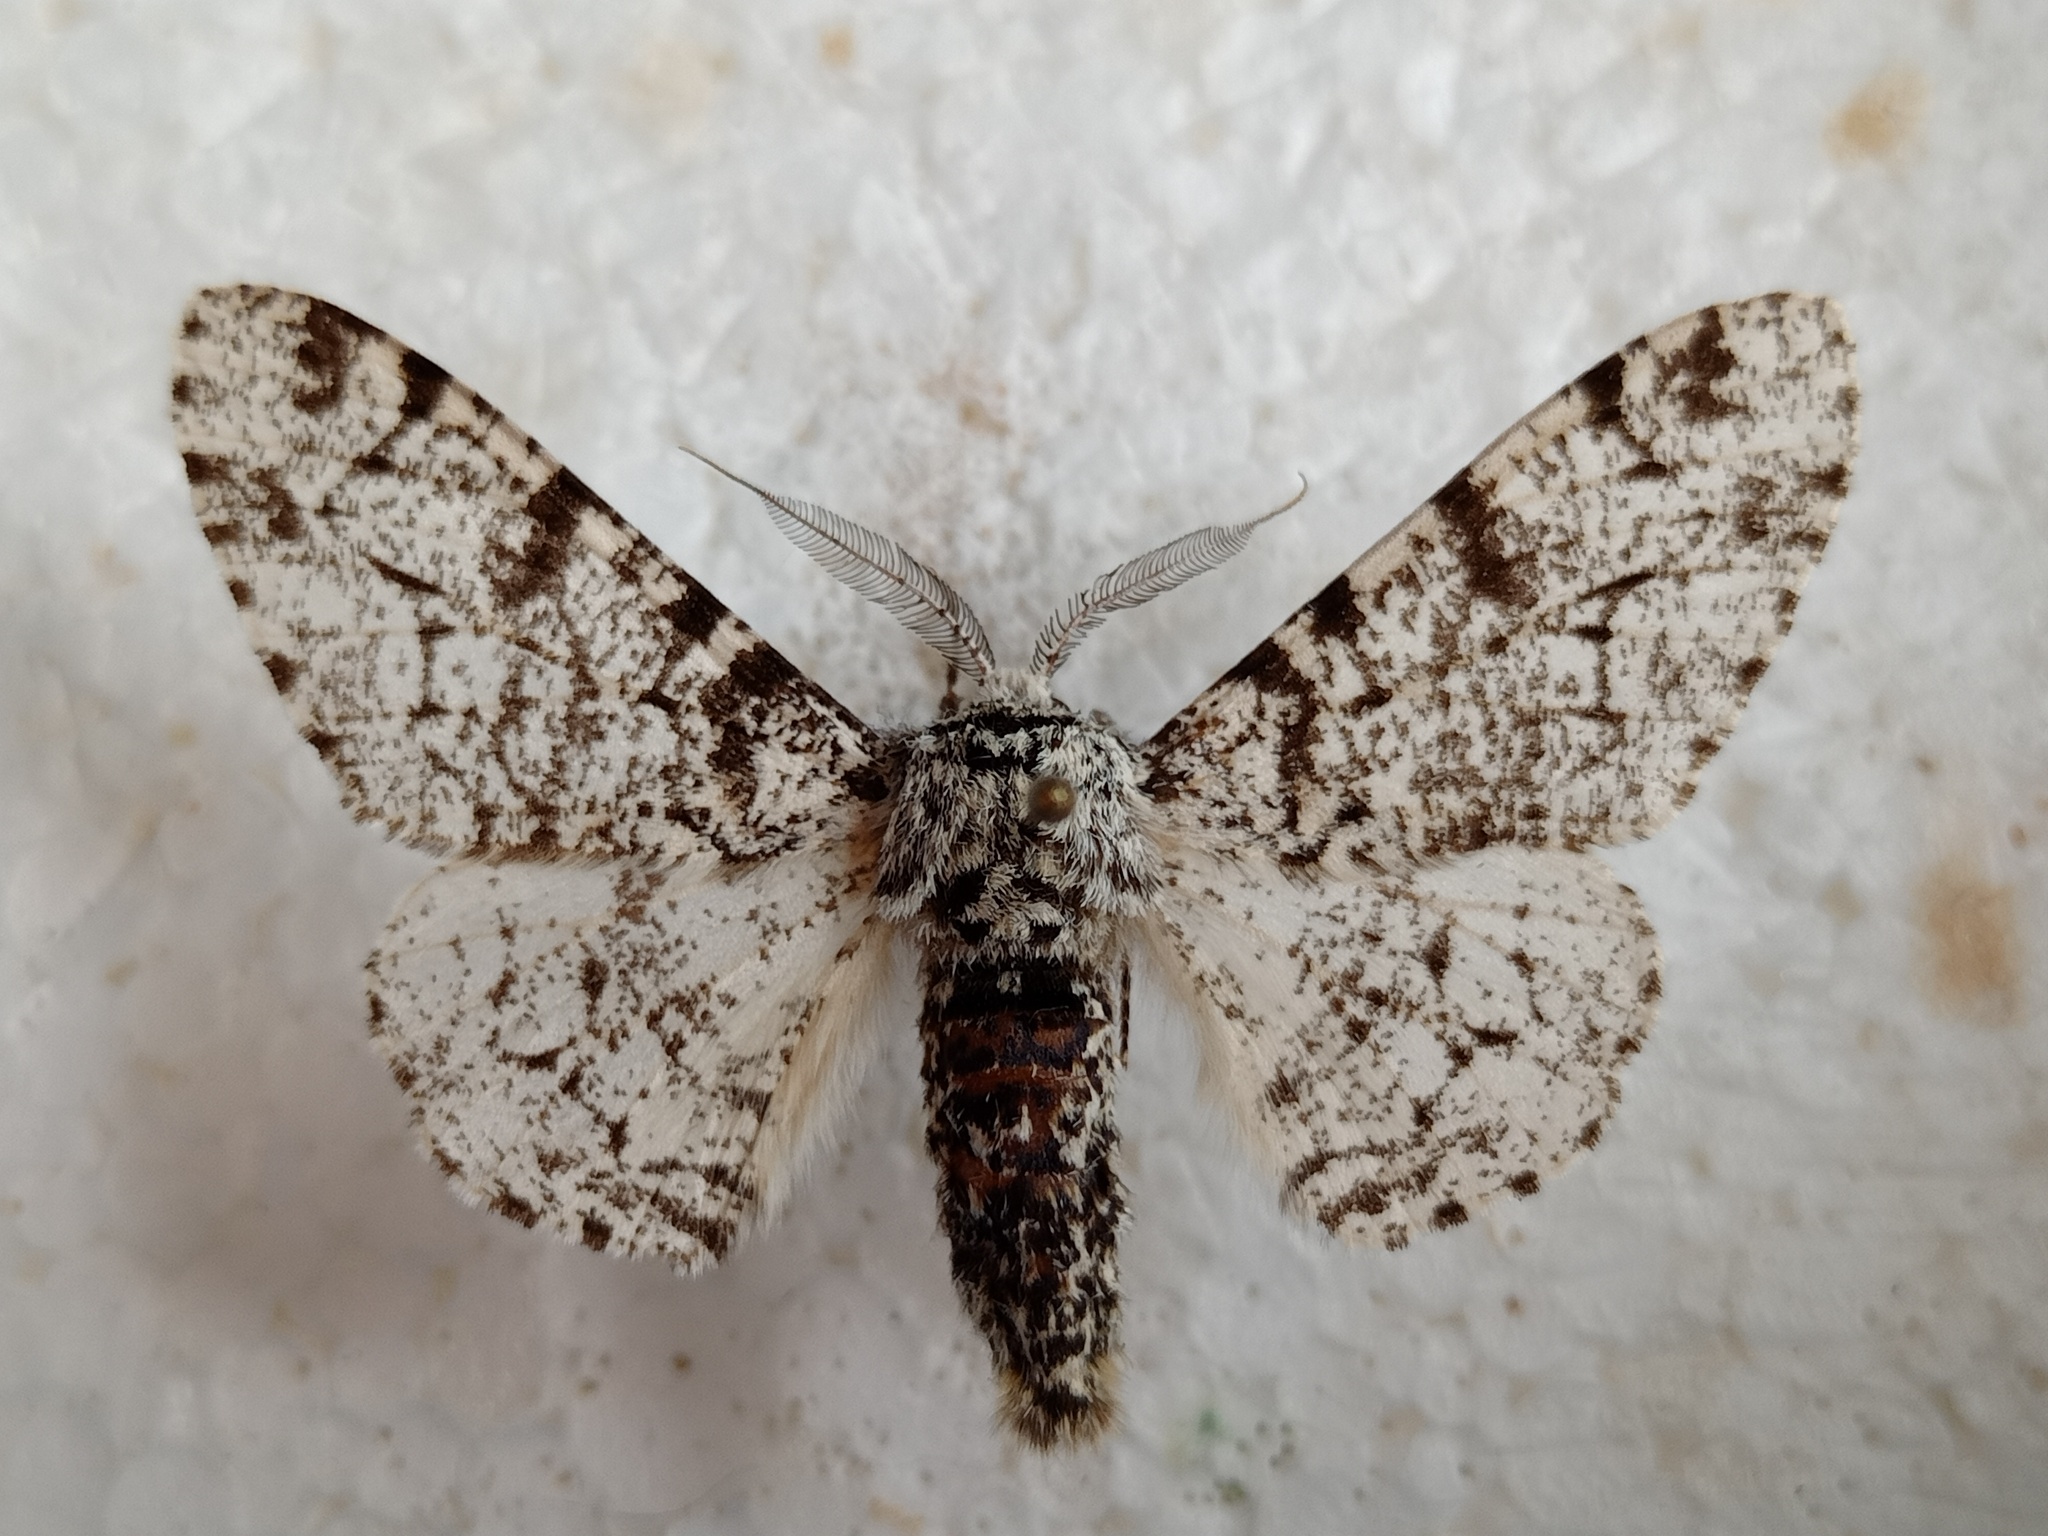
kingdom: Animalia
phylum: Arthropoda
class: Insecta
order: Lepidoptera
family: Geometridae
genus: Biston
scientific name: Biston betularia
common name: Peppered moth
